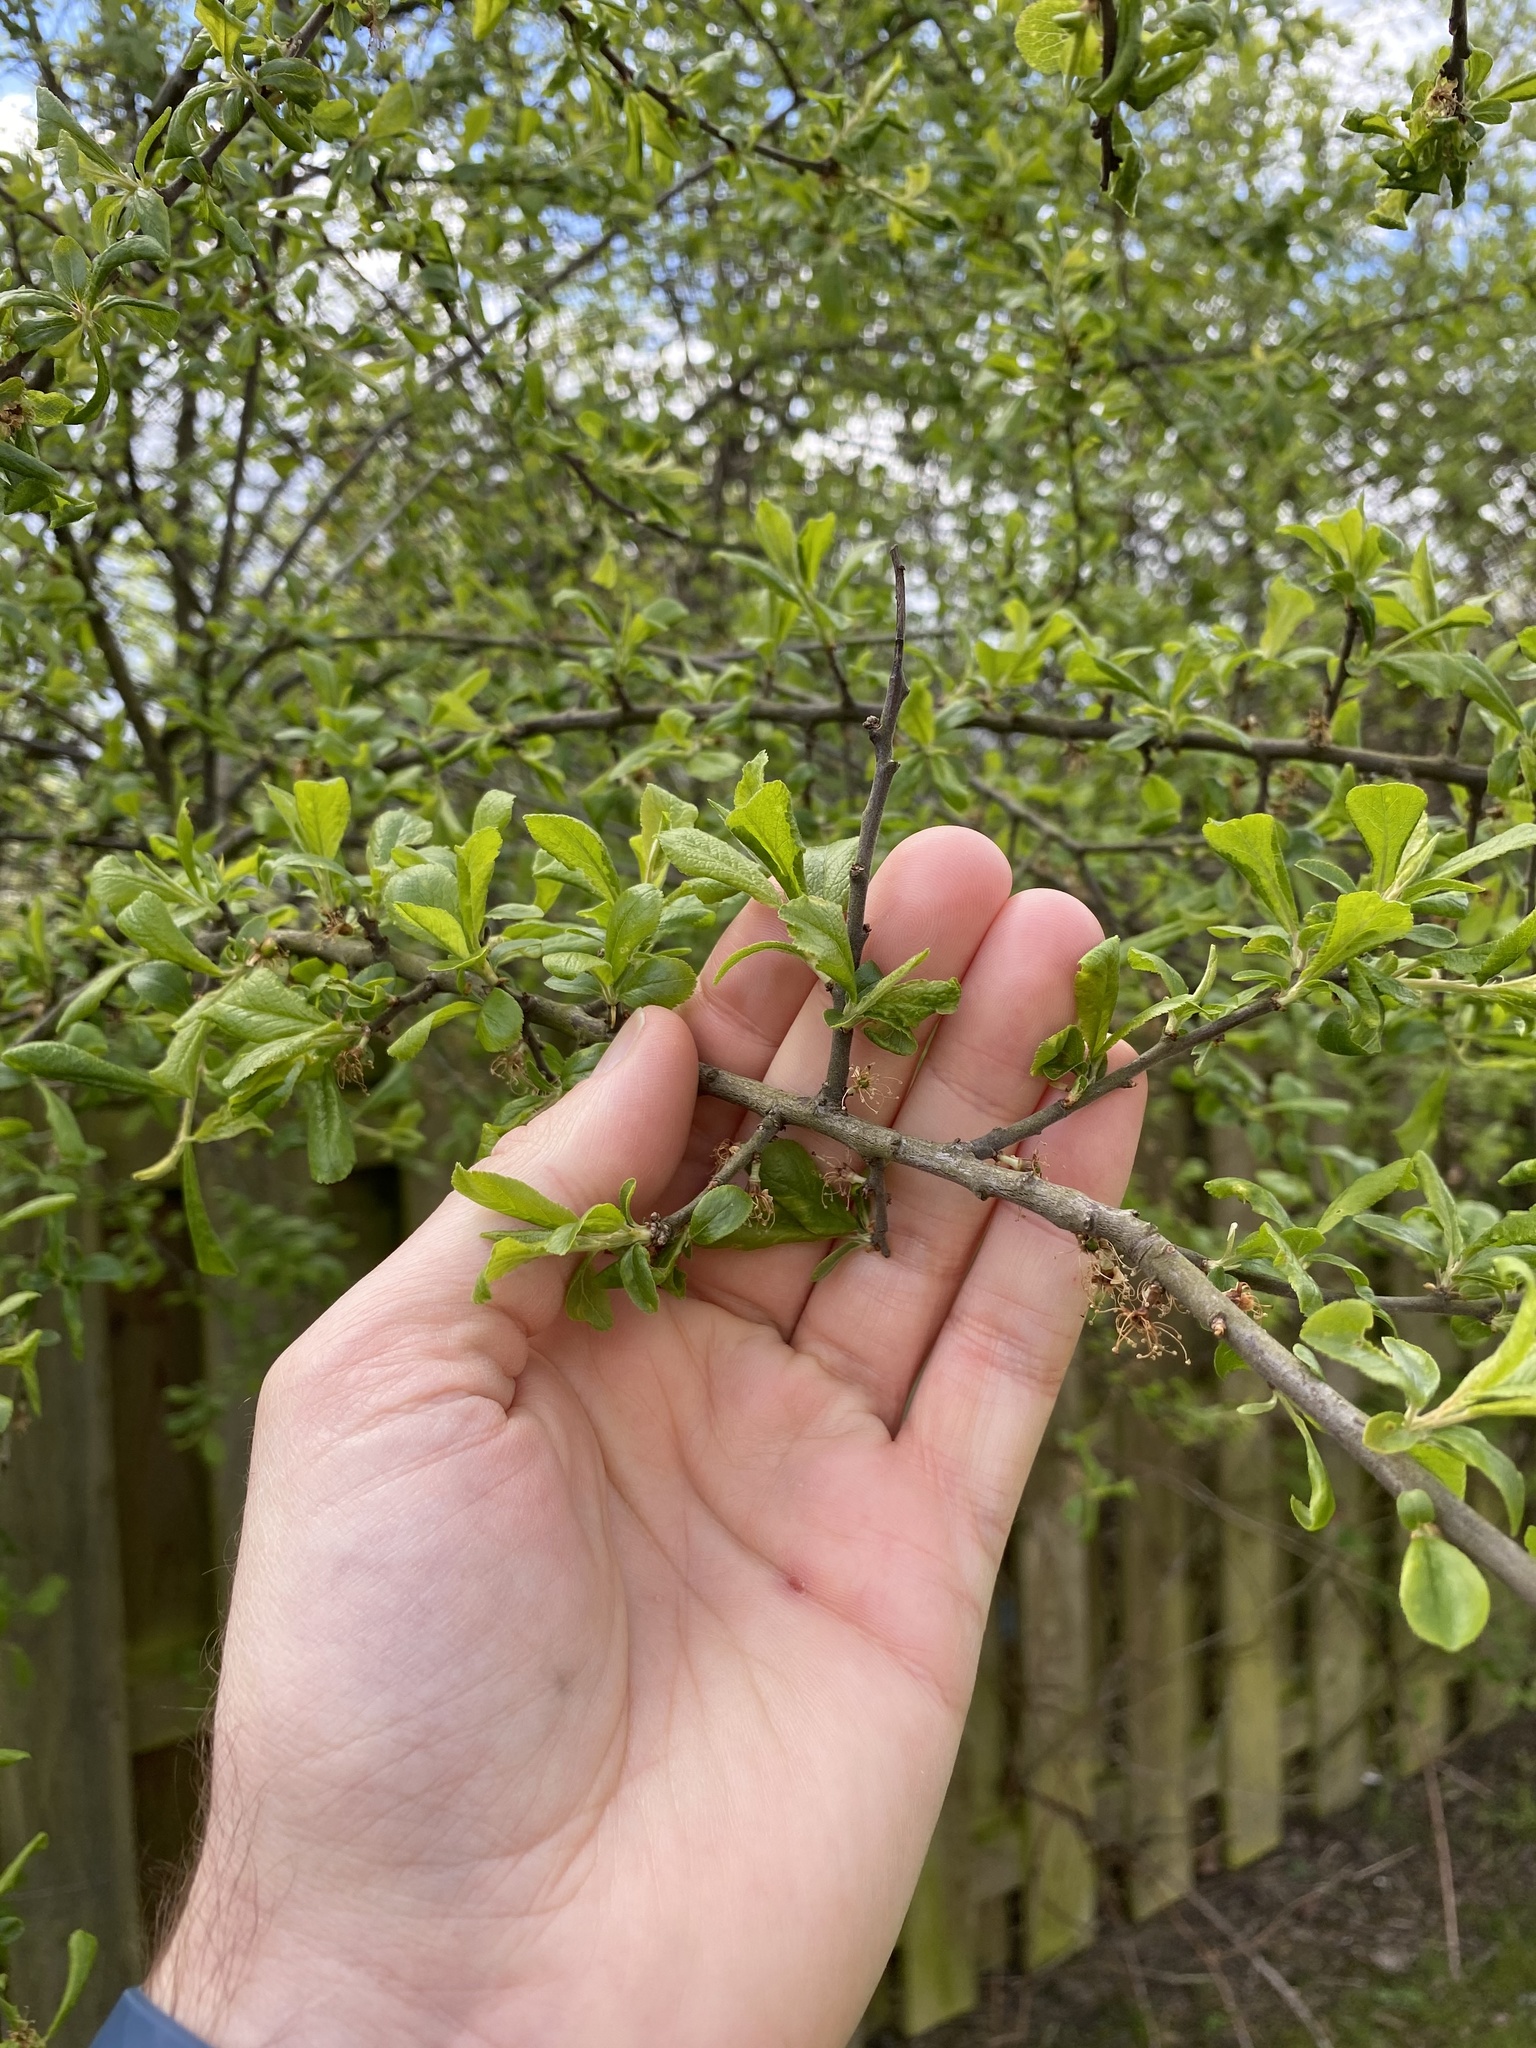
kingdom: Plantae
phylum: Tracheophyta
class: Magnoliopsida
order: Rosales
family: Rosaceae
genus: Prunus
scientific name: Prunus spinosa
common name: Blackthorn
